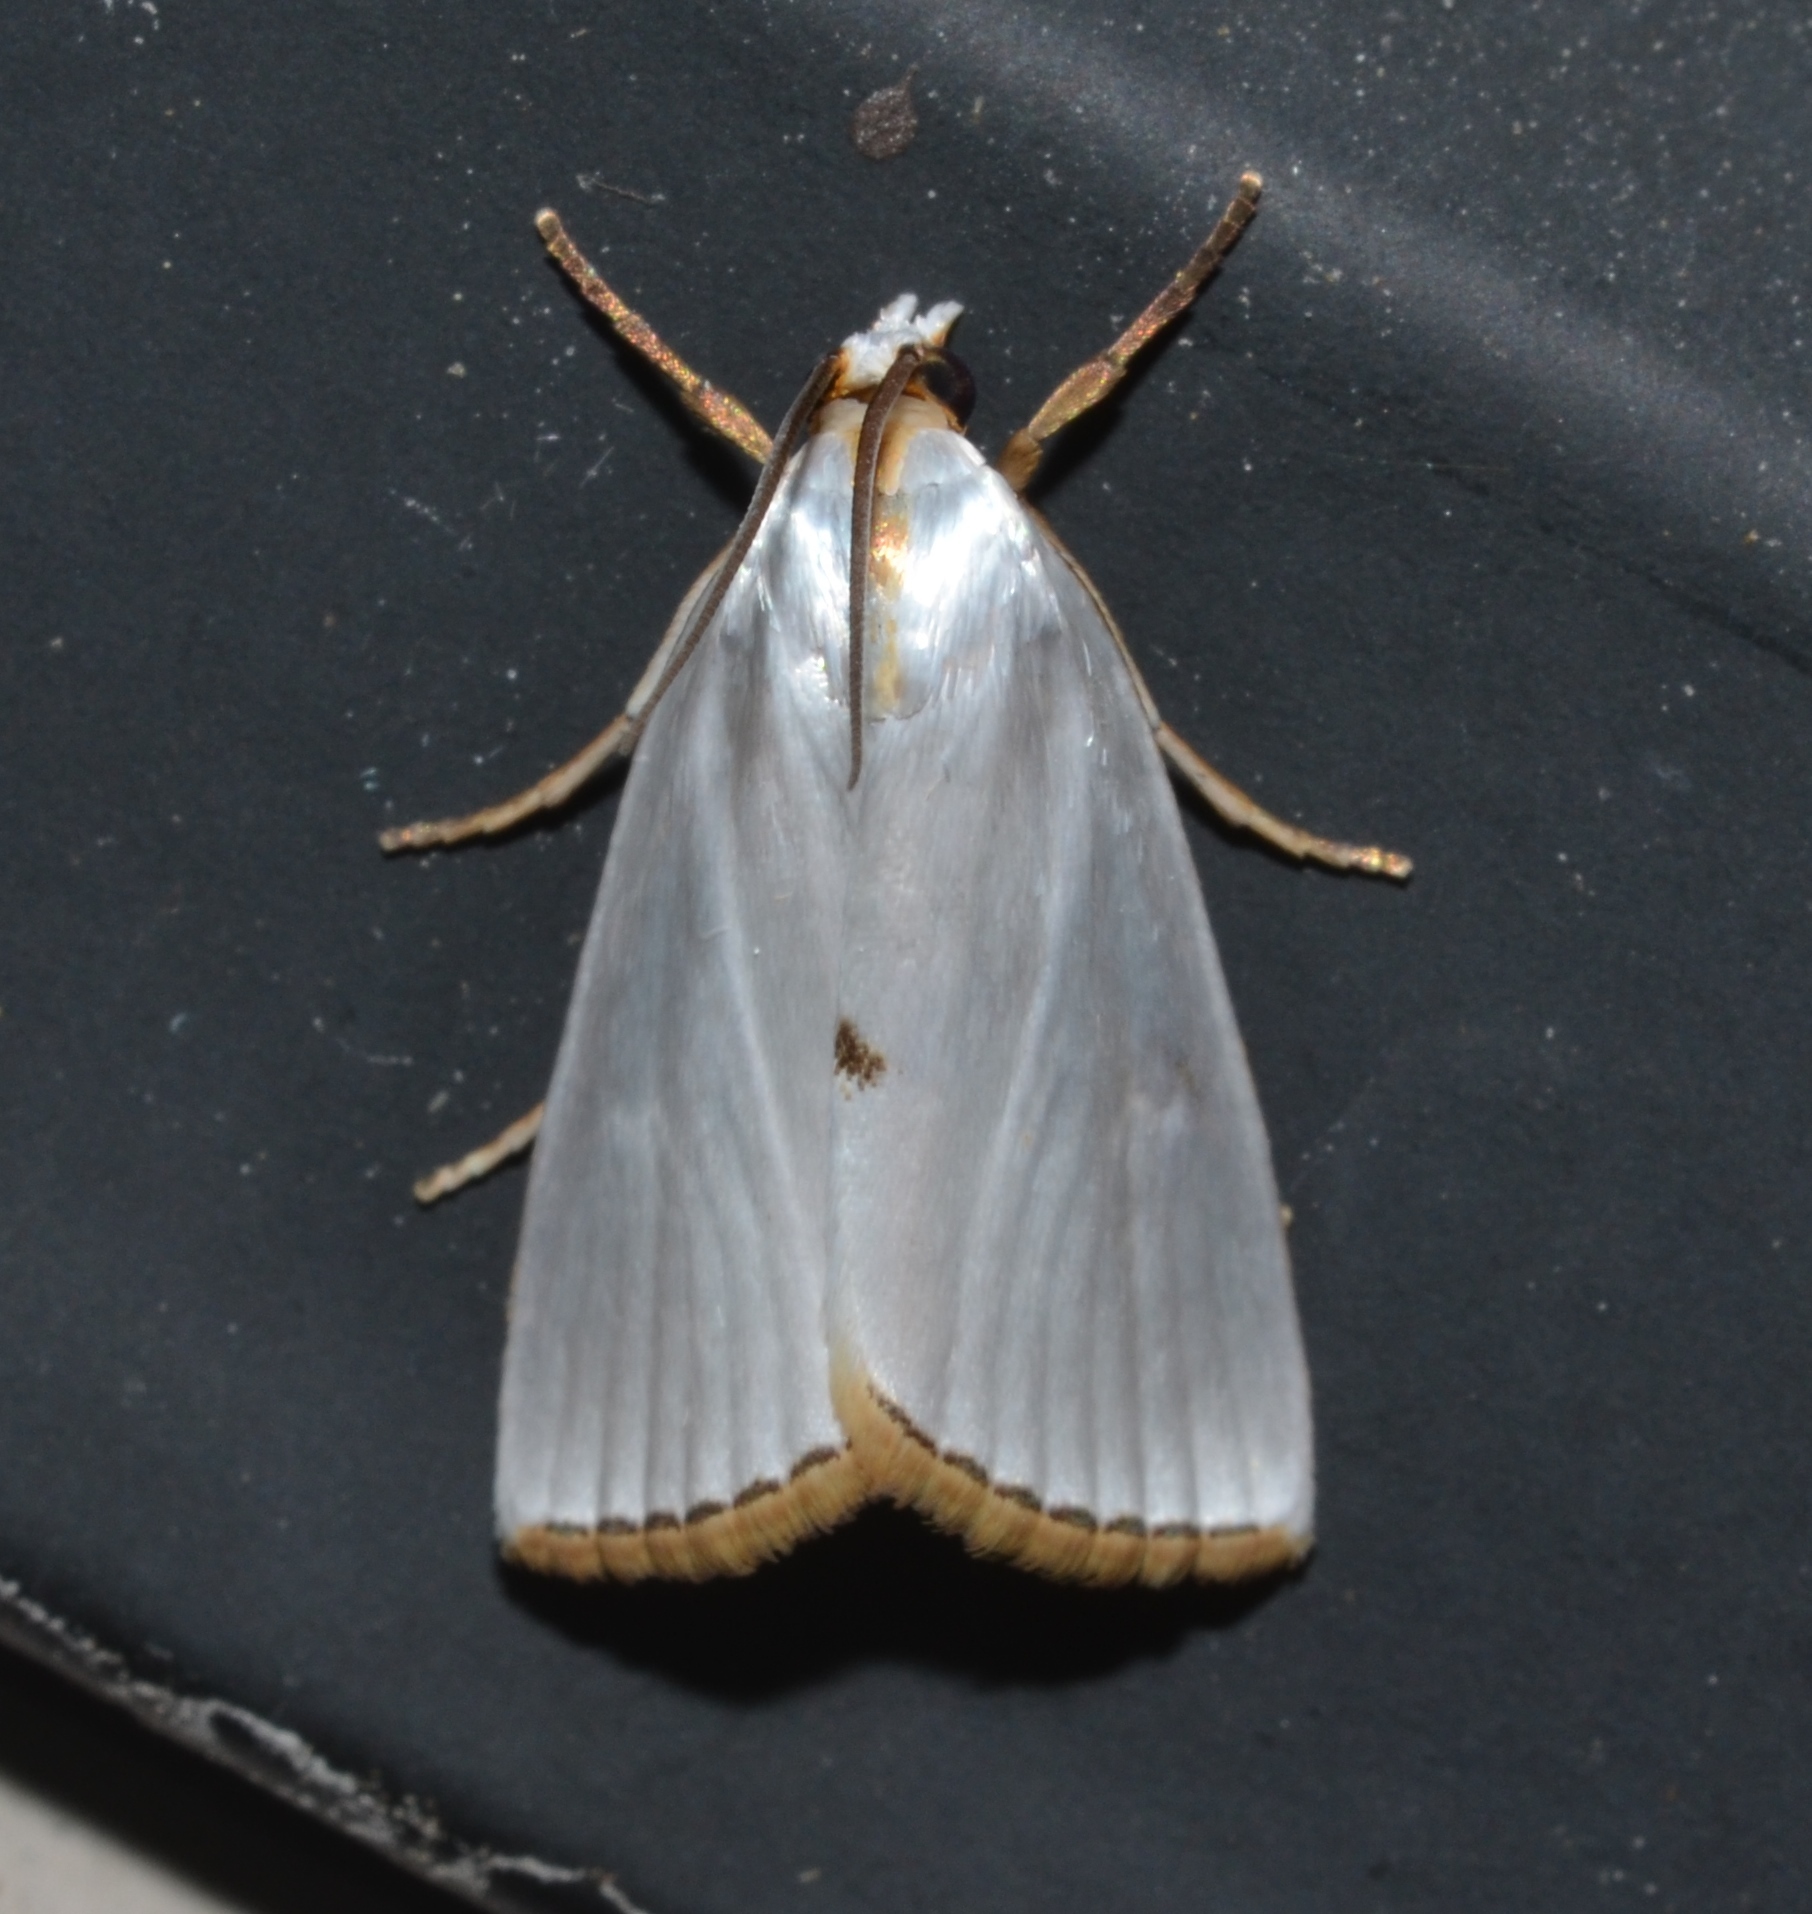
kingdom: Animalia
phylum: Arthropoda
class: Insecta
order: Lepidoptera
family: Crambidae
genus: Argyria
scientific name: Argyria nivalis
